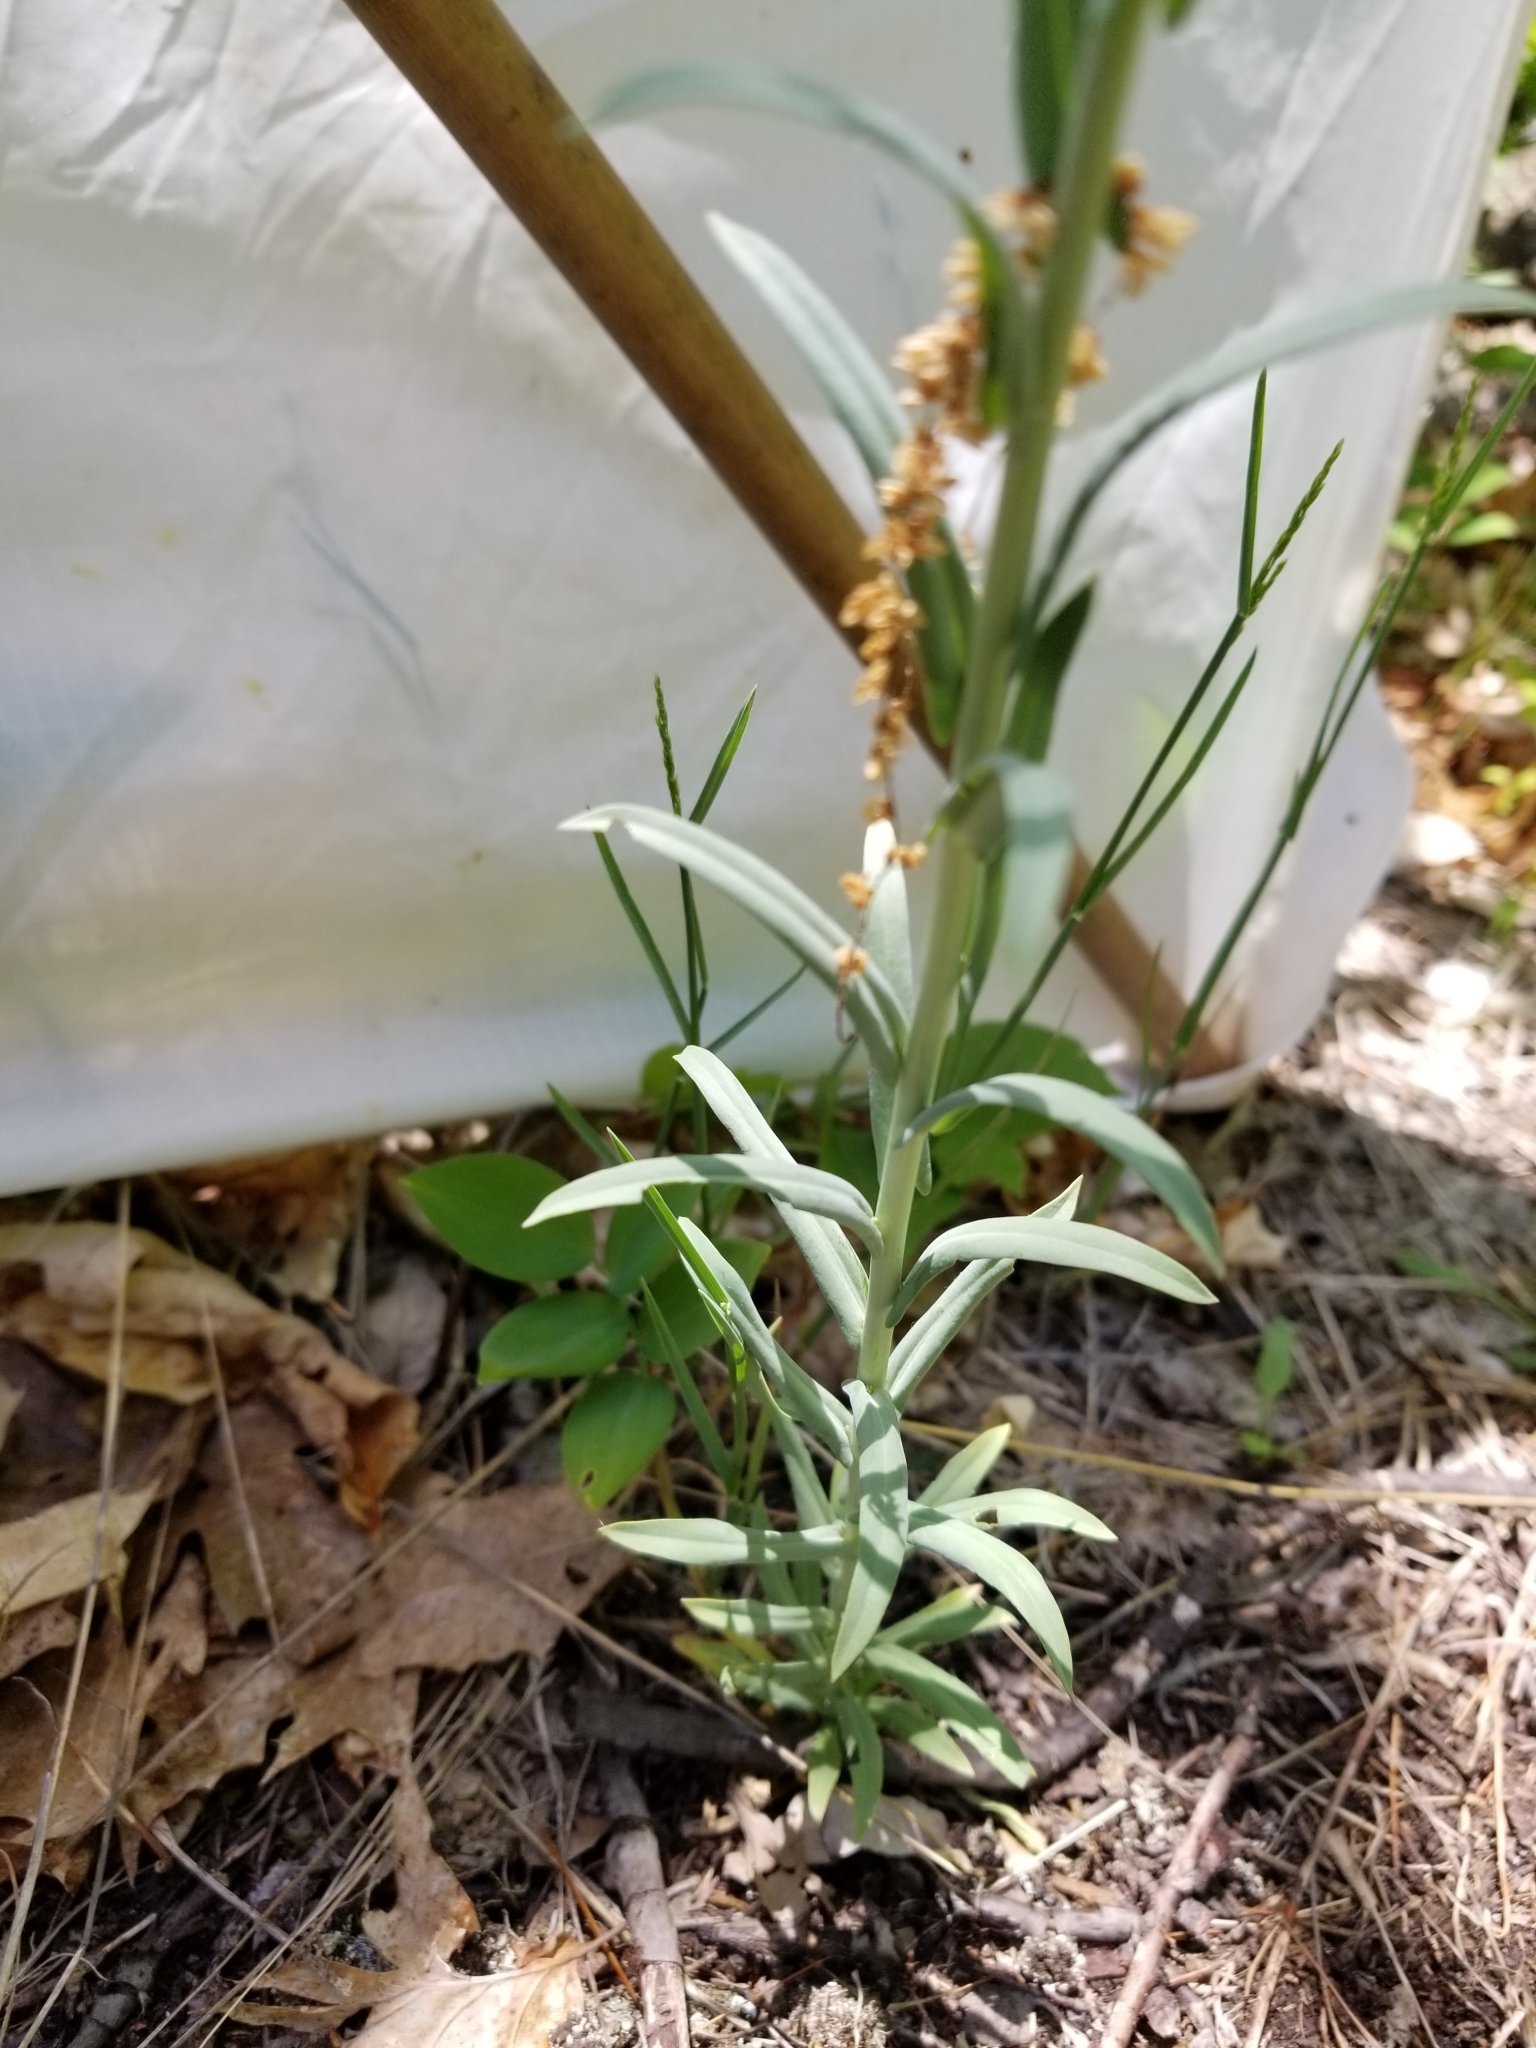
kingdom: Plantae
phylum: Tracheophyta
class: Magnoliopsida
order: Brassicales
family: Brassicaceae
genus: Turritis
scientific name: Turritis glabra
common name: Tower rockcress
